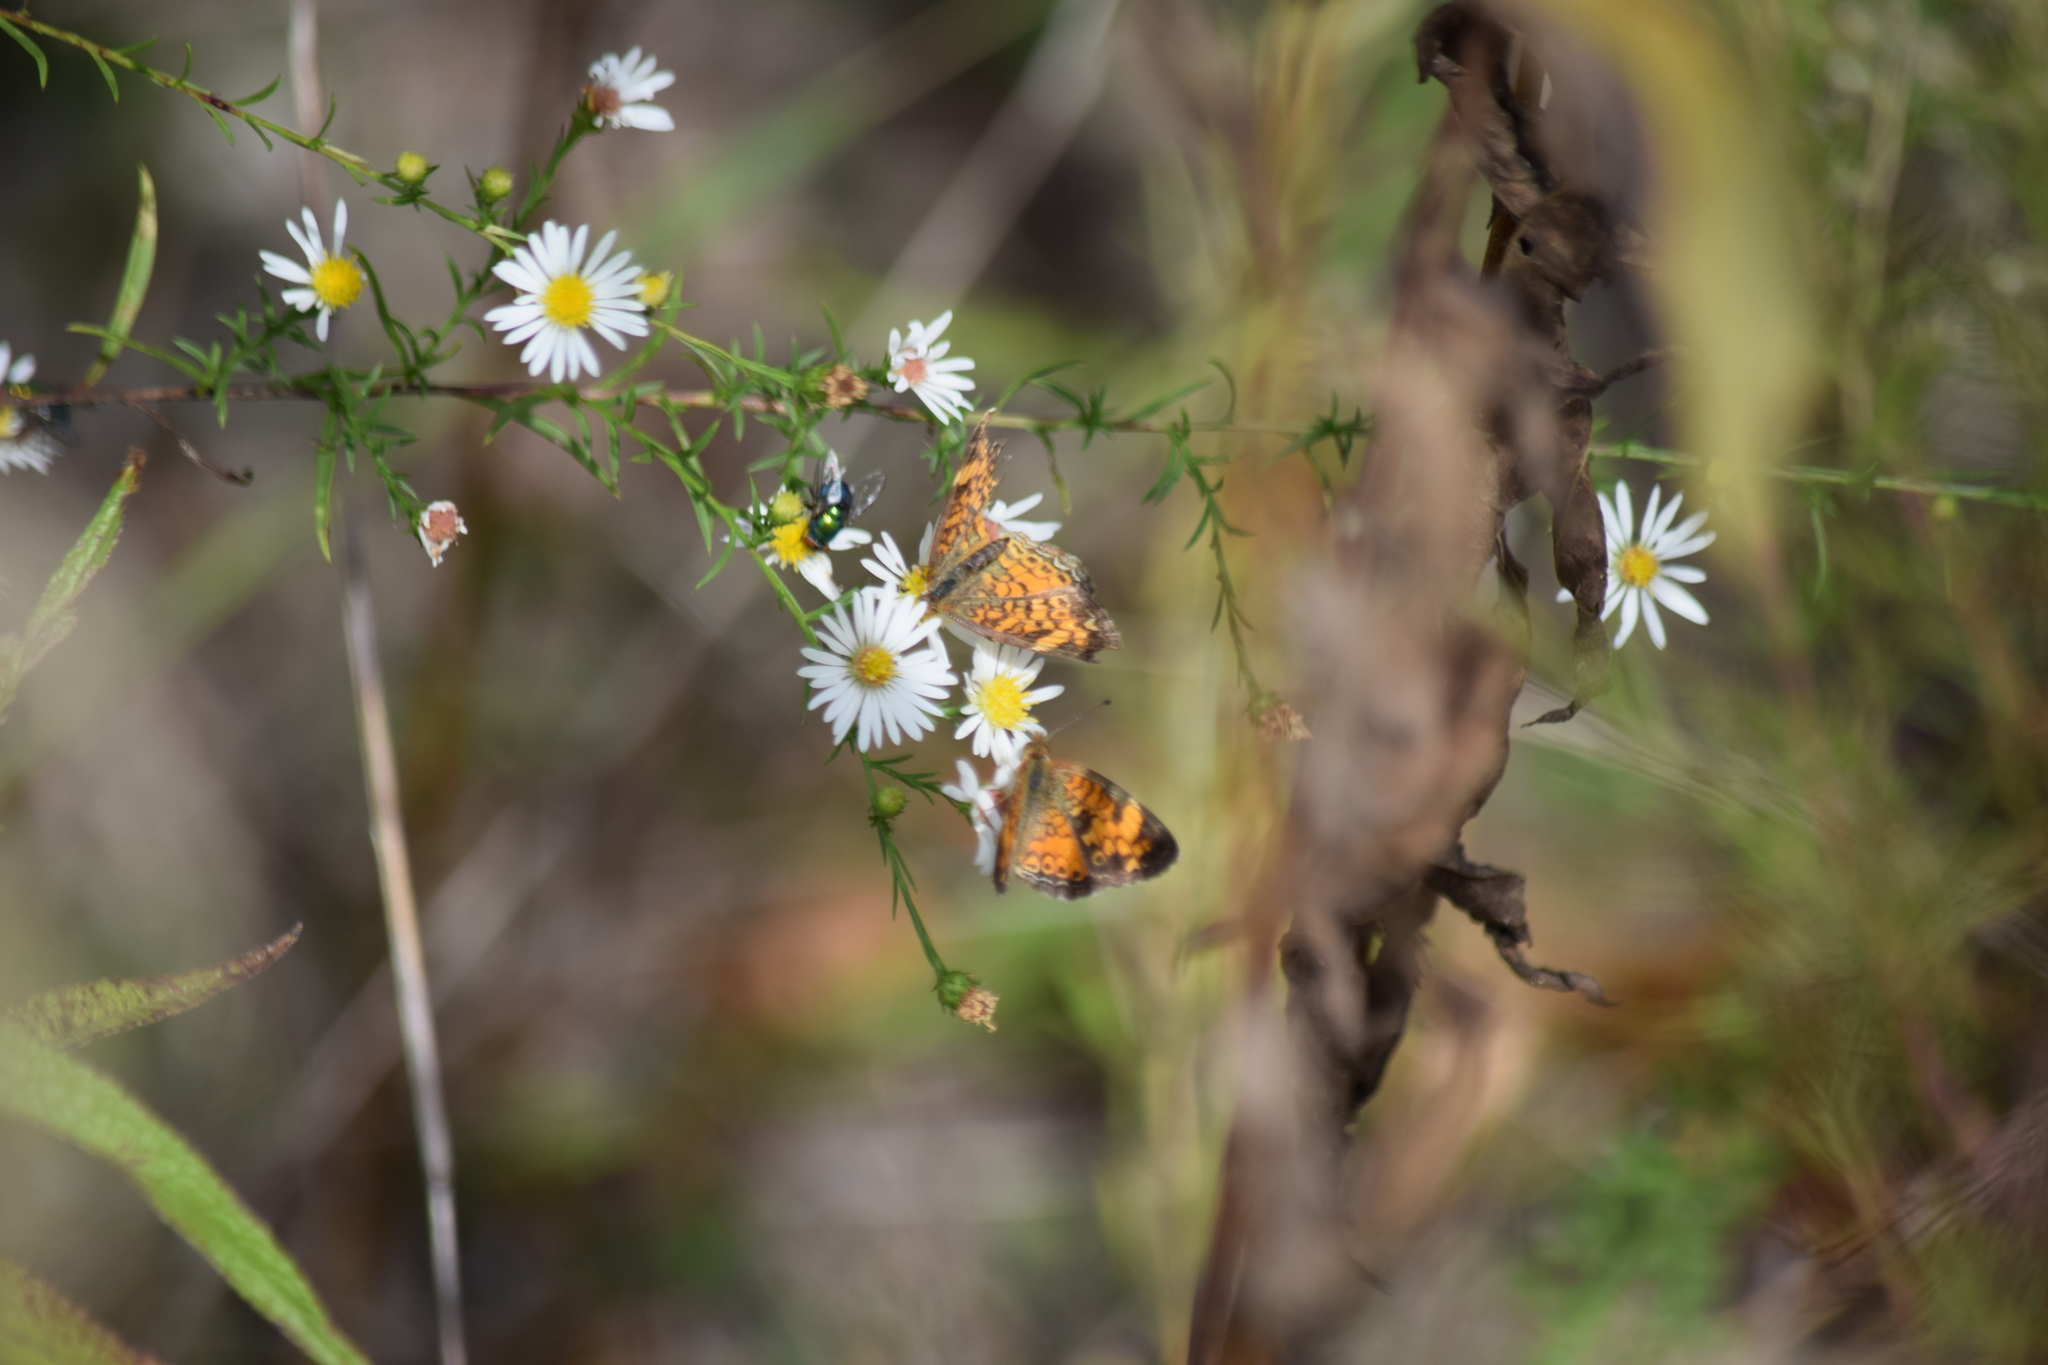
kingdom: Animalia
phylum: Arthropoda
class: Insecta
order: Lepidoptera
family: Nymphalidae
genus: Phyciodes
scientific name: Phyciodes tharos
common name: Pearl crescent
